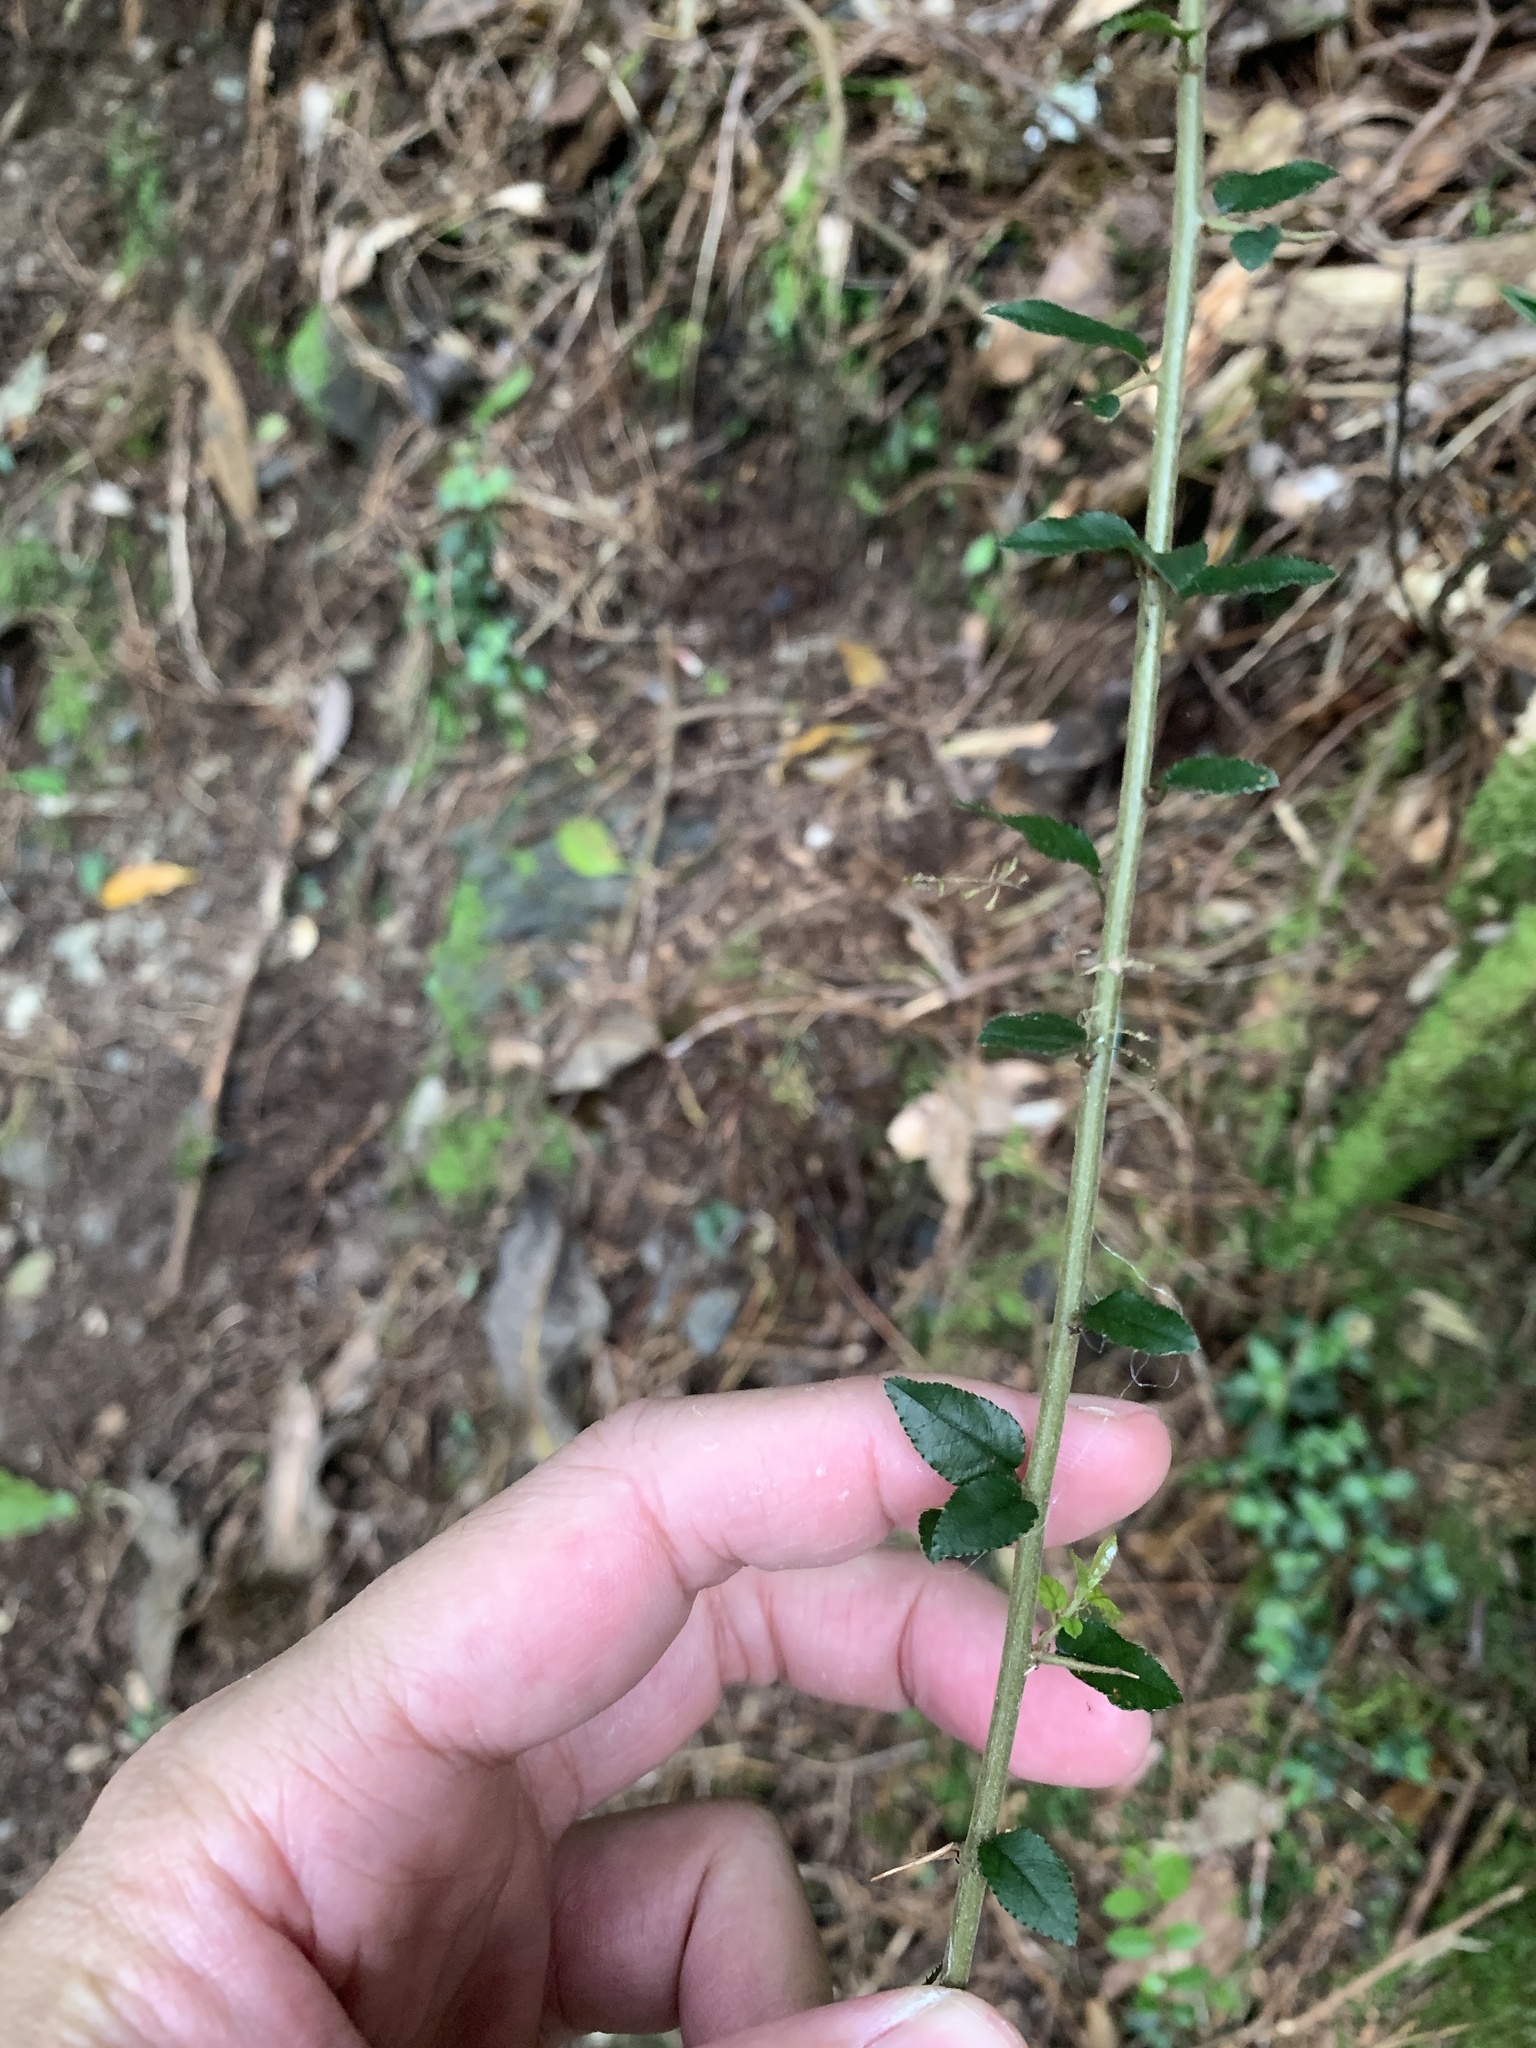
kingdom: Plantae
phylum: Tracheophyta
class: Magnoliopsida
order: Rosales
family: Rhamnaceae
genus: Sageretia
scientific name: Sageretia thea
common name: Pauper's-tea
